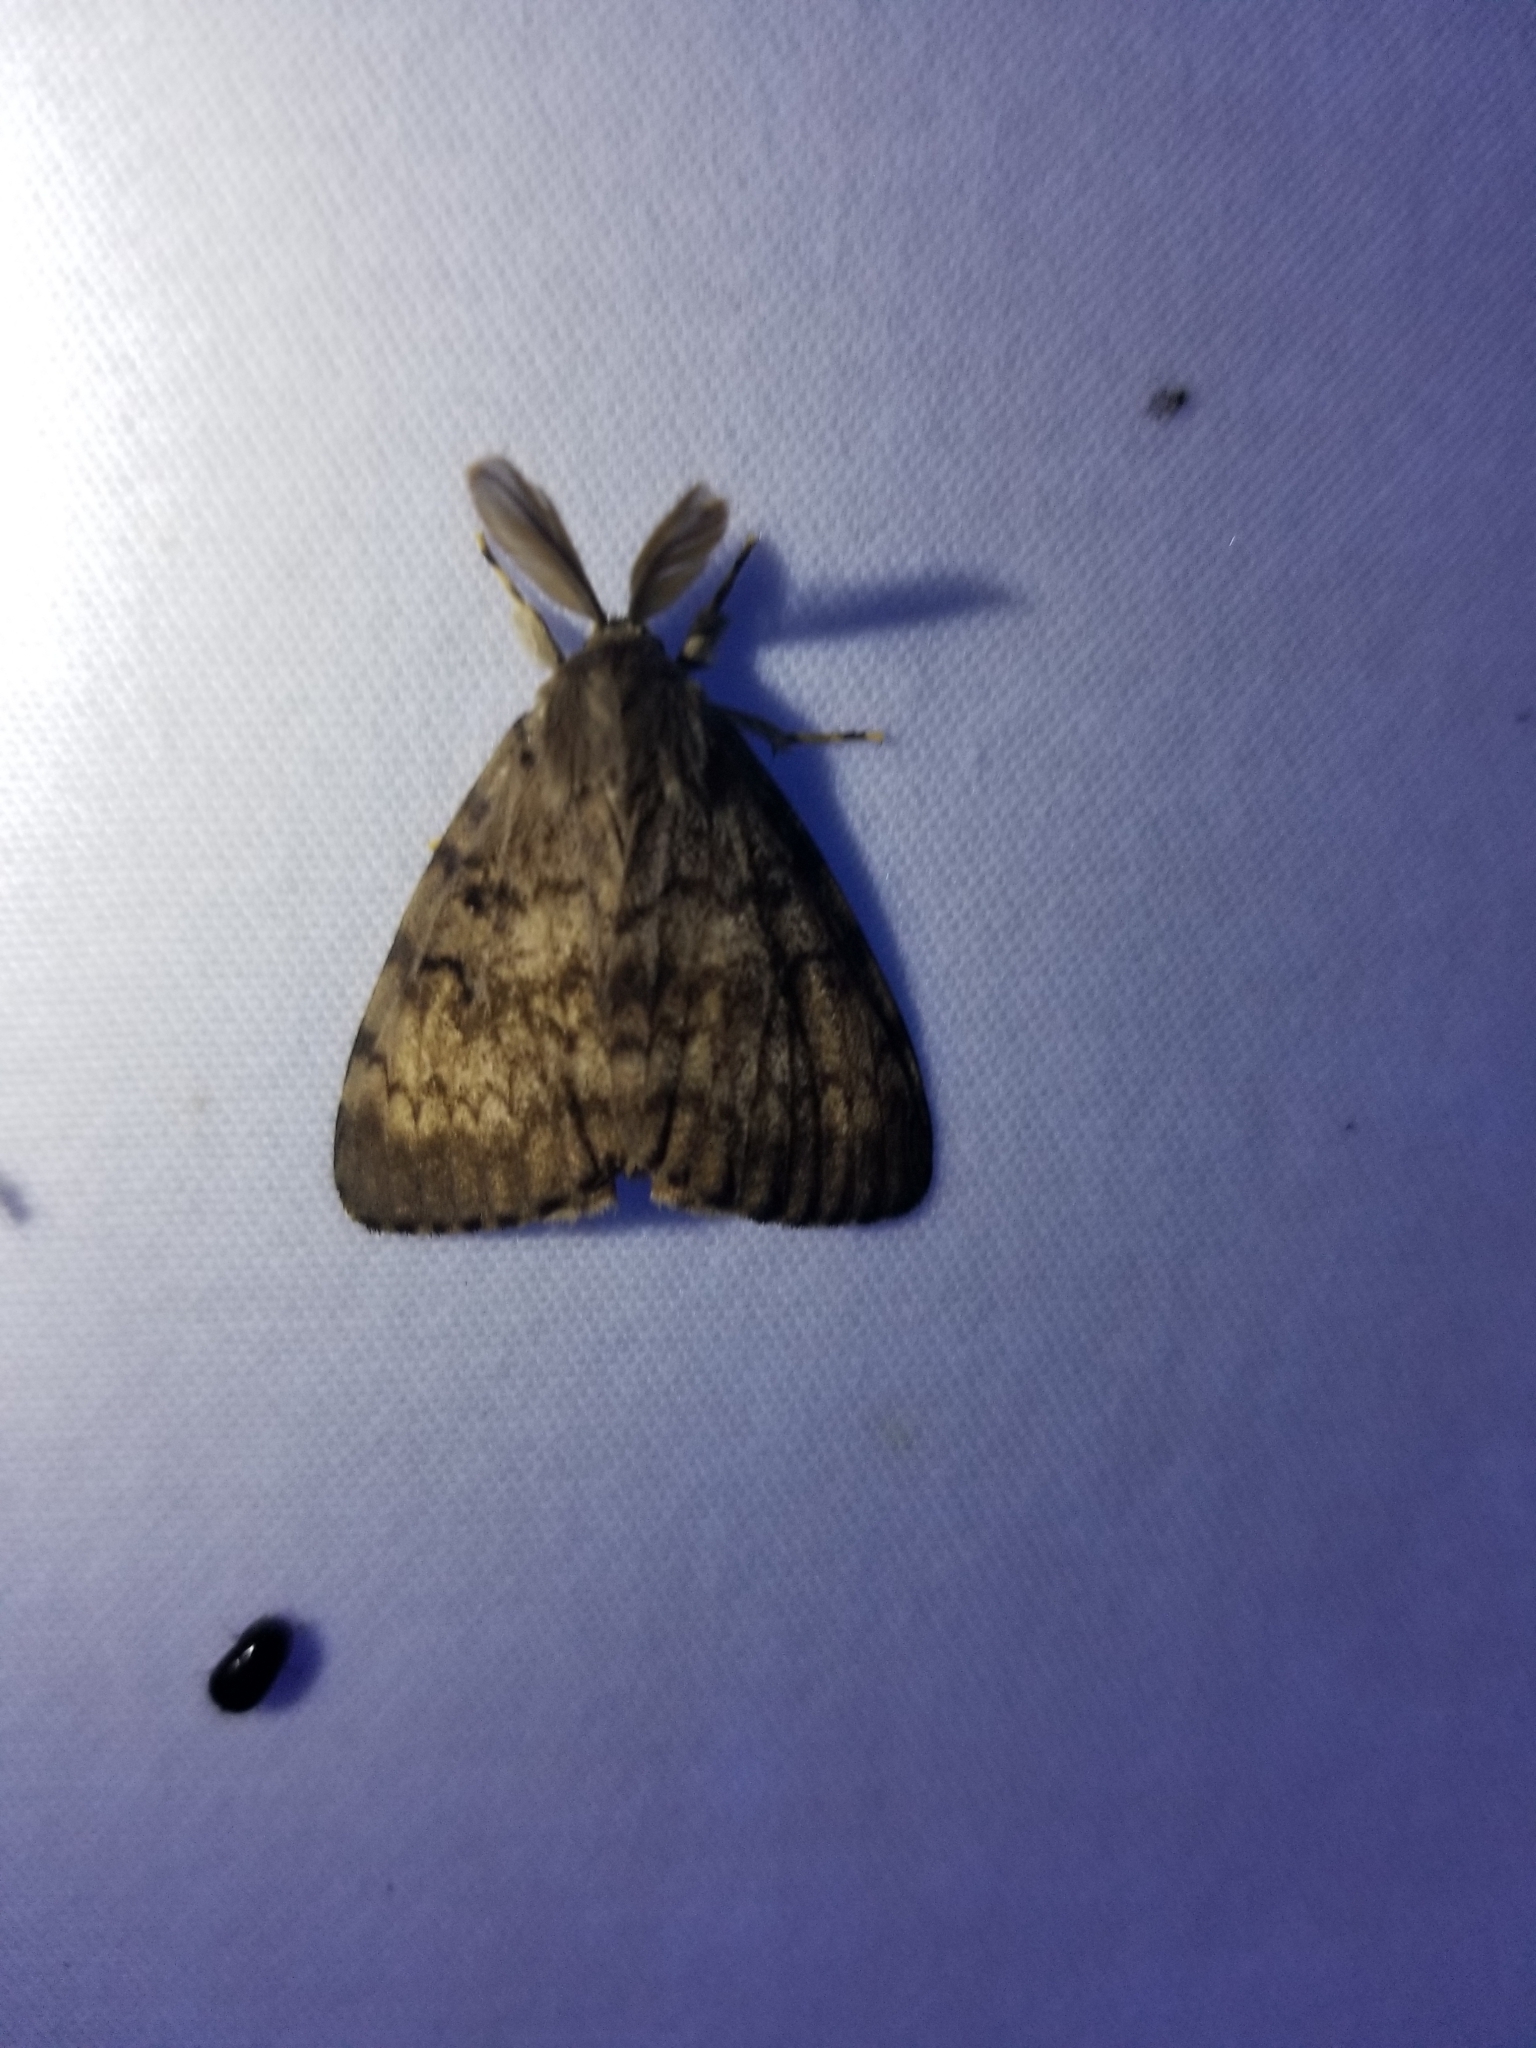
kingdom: Animalia
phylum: Arthropoda
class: Insecta
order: Lepidoptera
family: Erebidae
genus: Lymantria
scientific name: Lymantria dispar
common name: Gypsy moth
